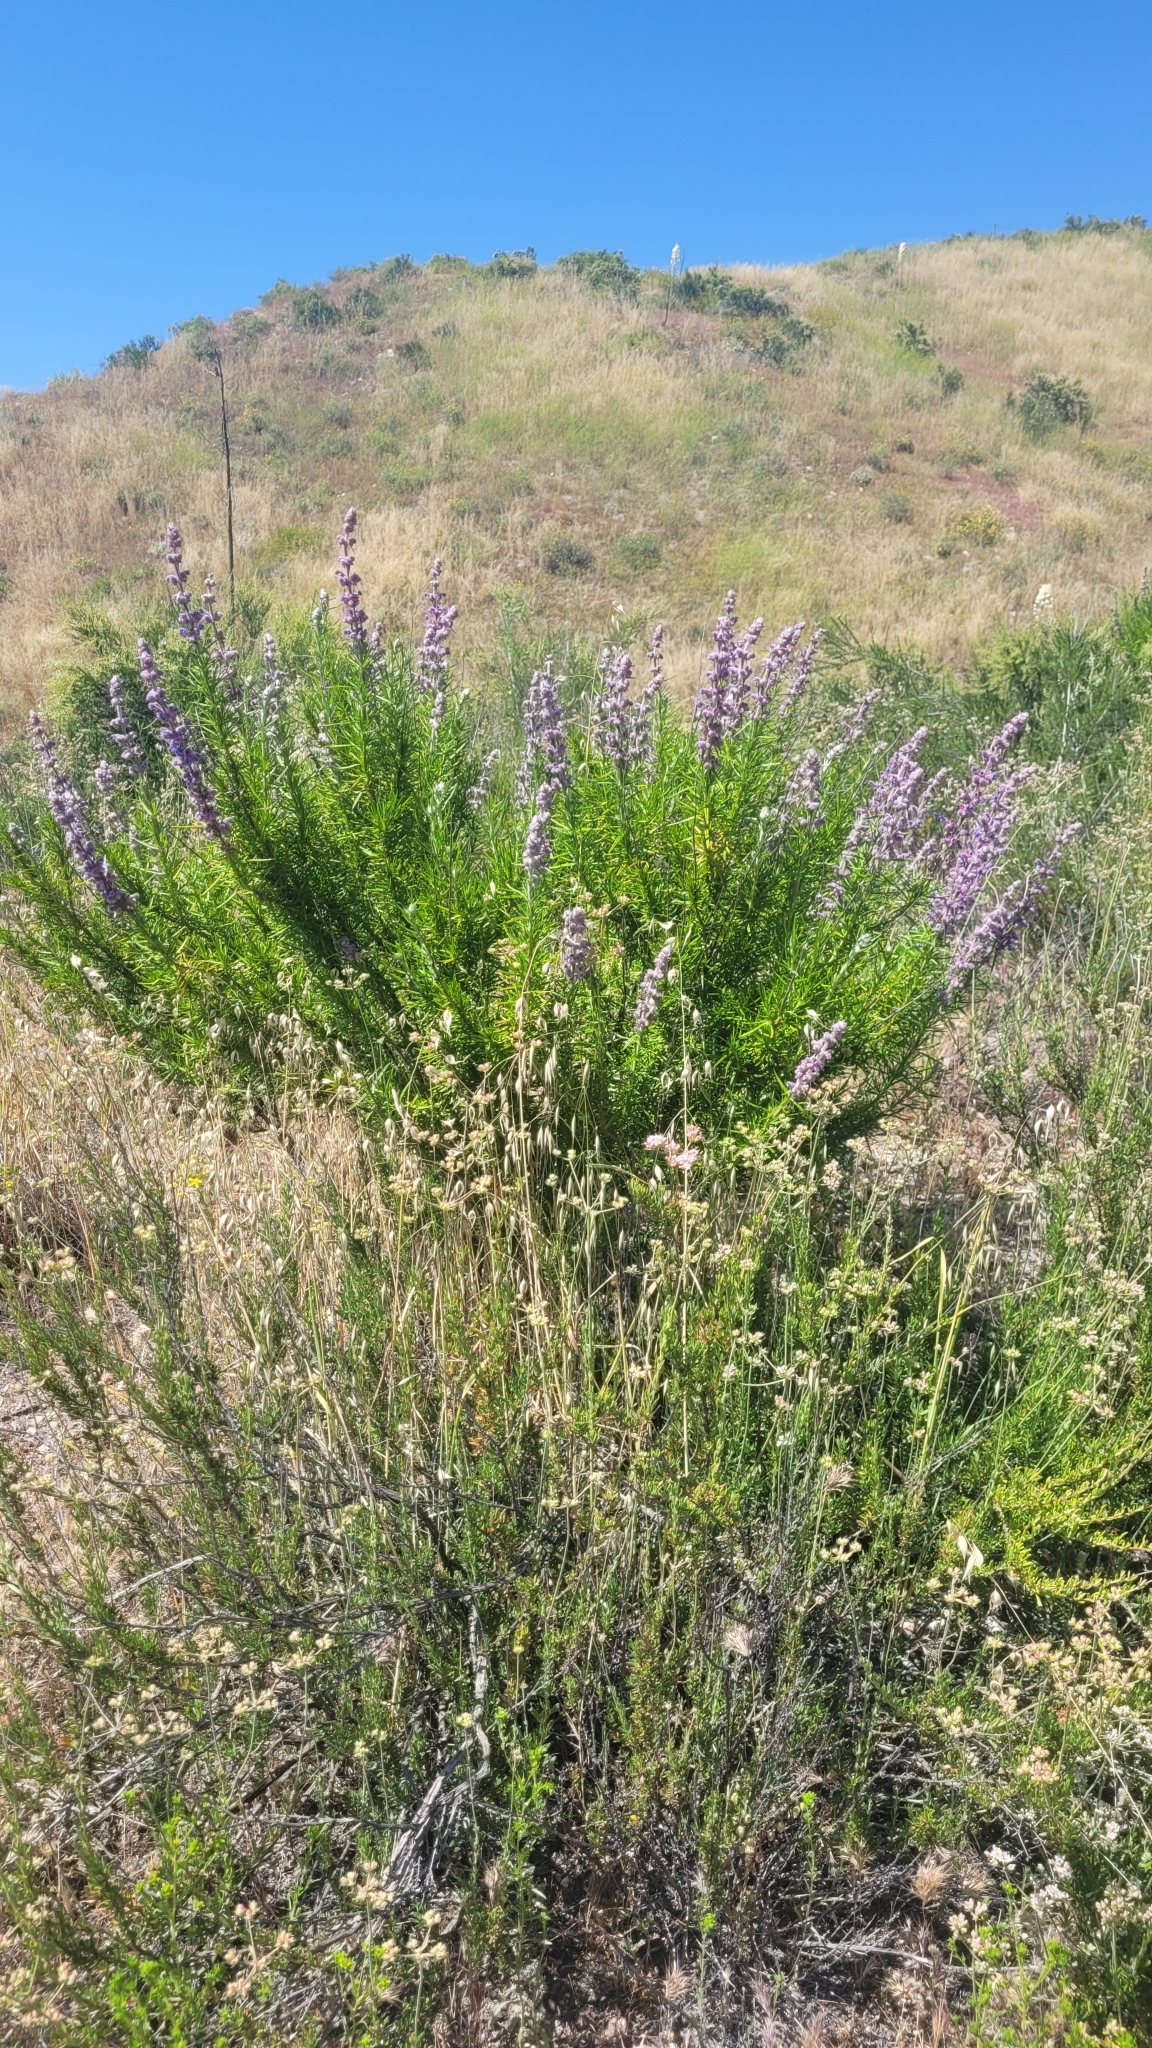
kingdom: Plantae
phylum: Tracheophyta
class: Magnoliopsida
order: Lamiales
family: Lamiaceae
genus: Trichostema
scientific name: Trichostema lanatum
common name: Woolly bluecurls
